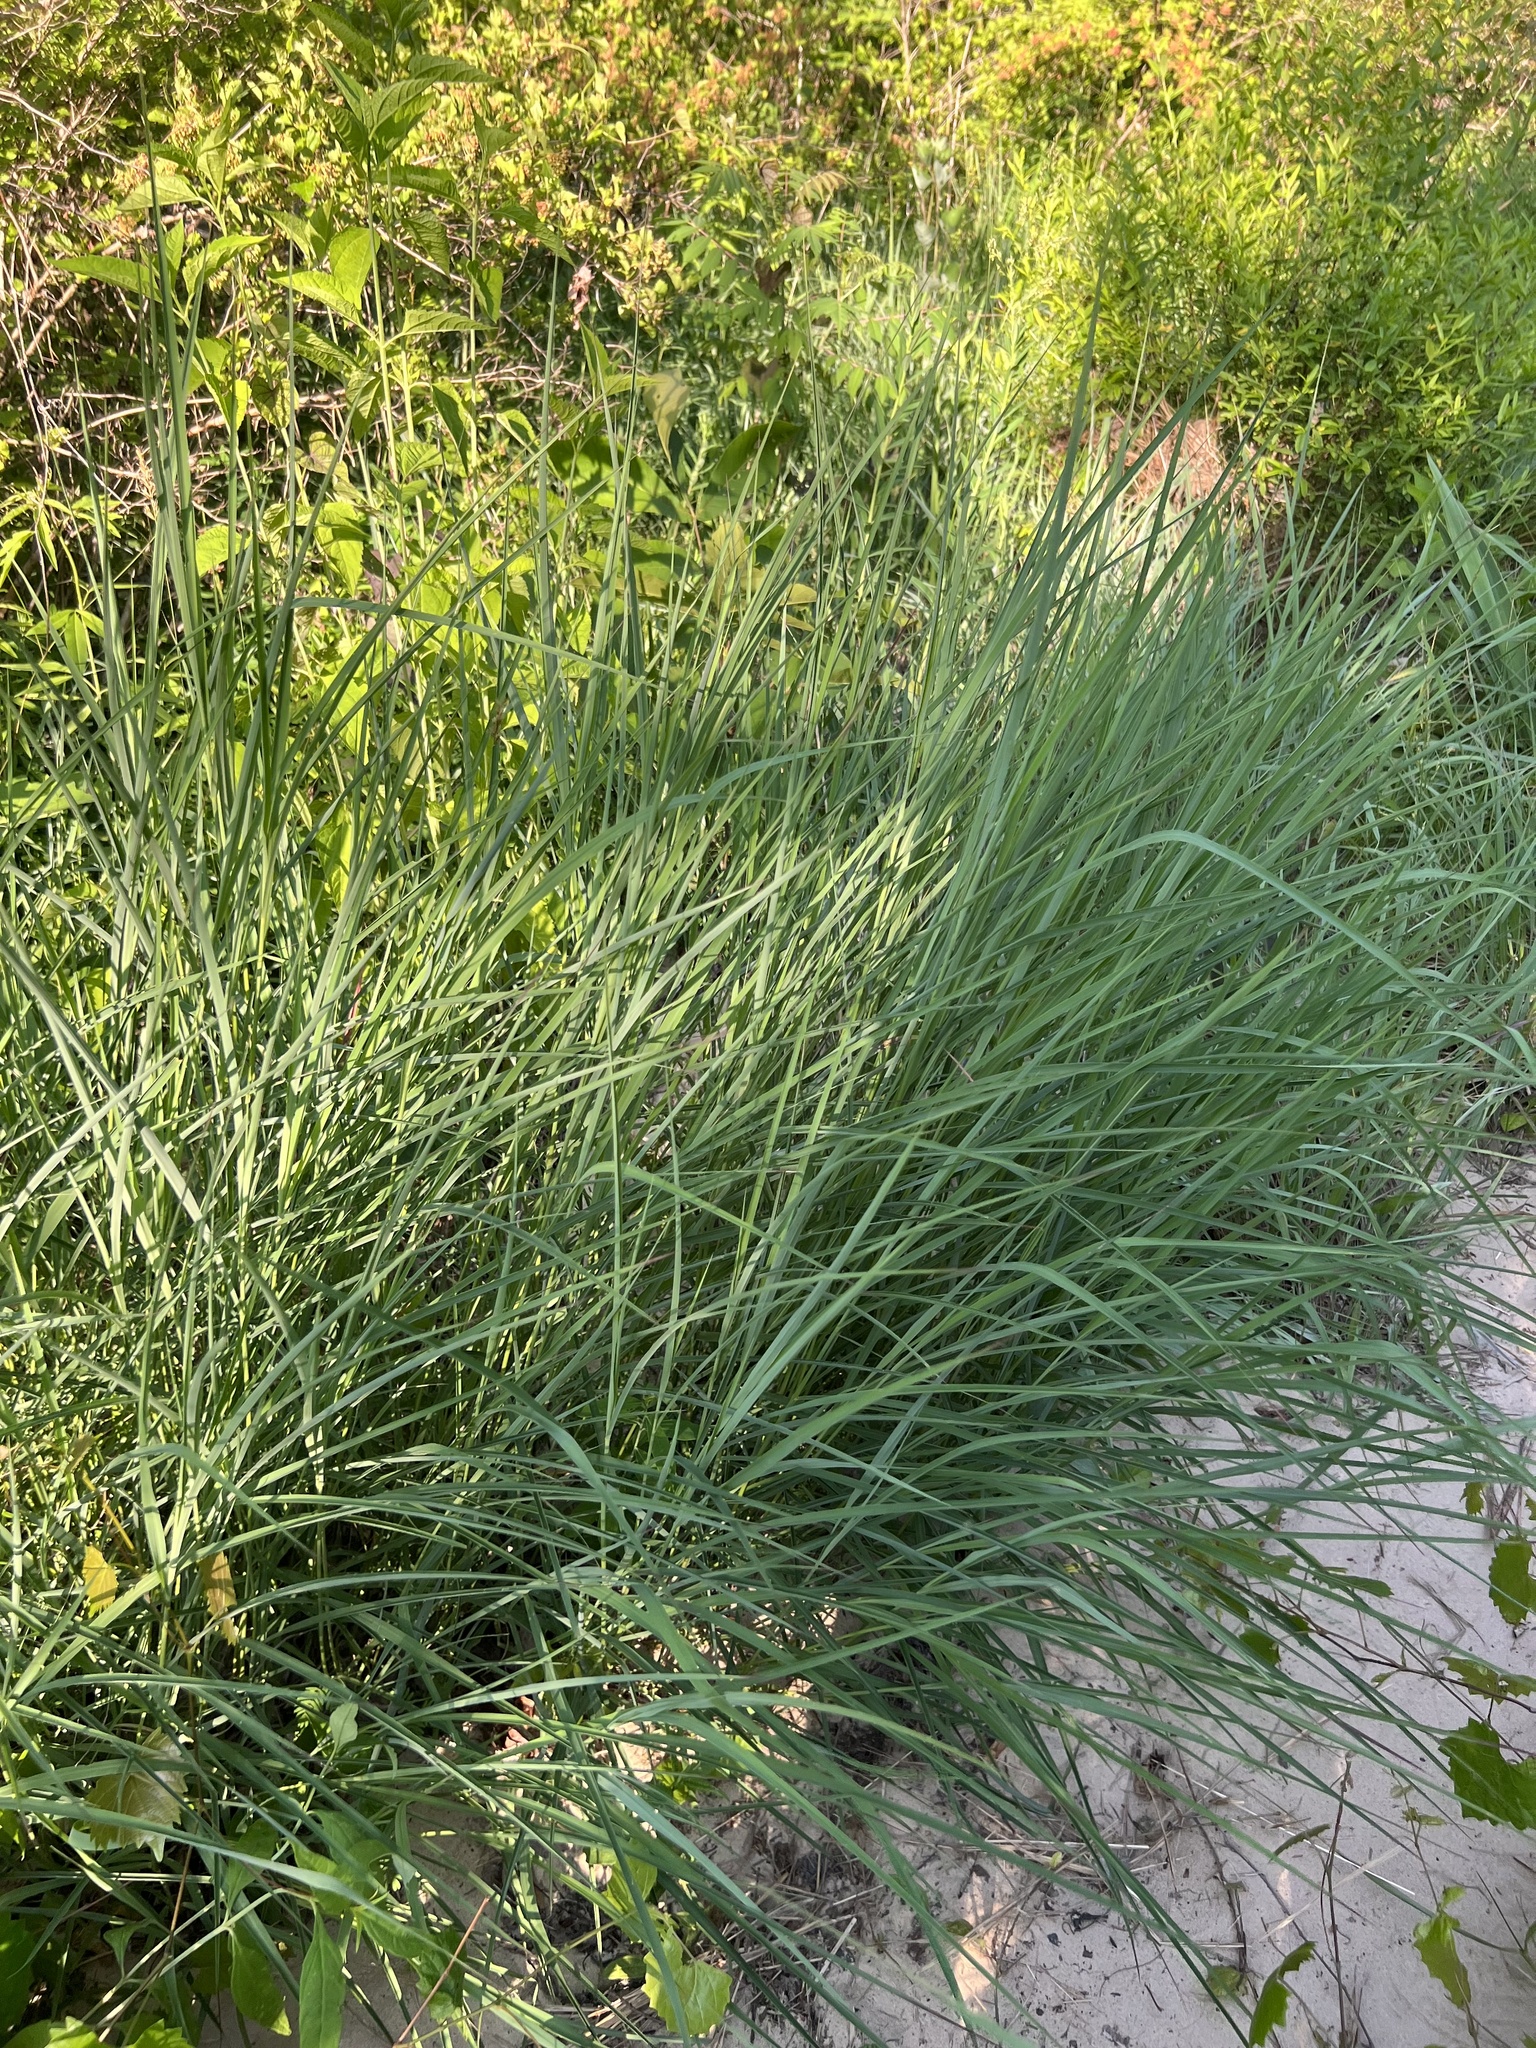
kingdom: Plantae
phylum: Tracheophyta
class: Liliopsida
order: Poales
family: Poaceae
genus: Andropogon
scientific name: Andropogon gerardi
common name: Big bluestem
